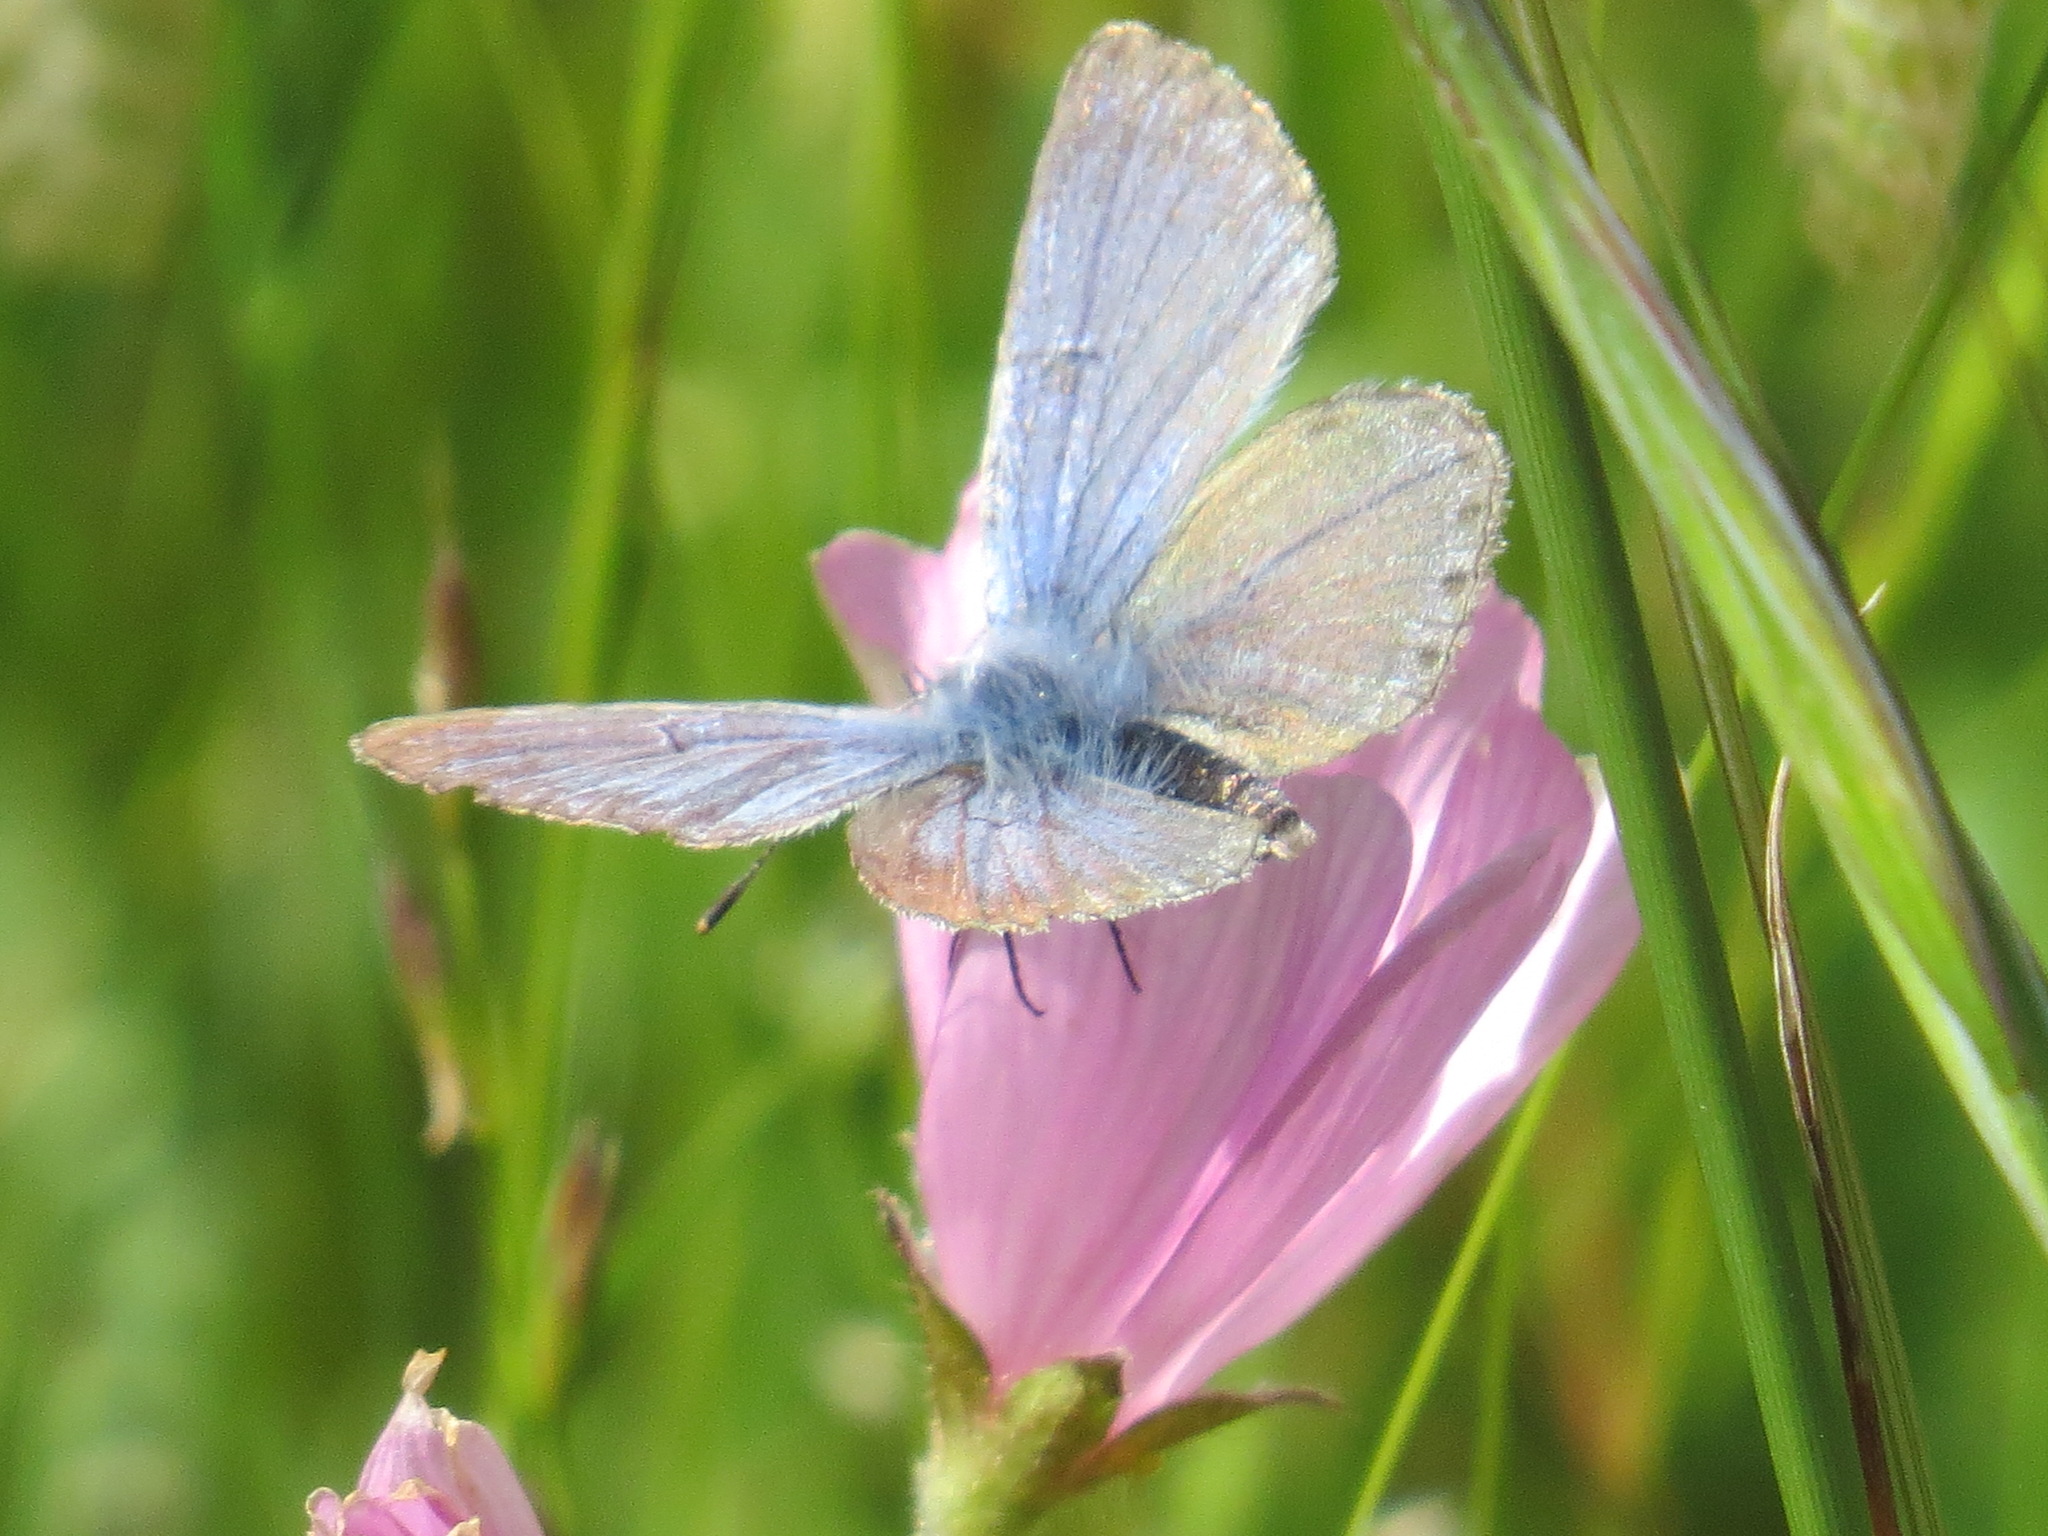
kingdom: Animalia
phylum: Arthropoda
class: Insecta
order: Lepidoptera
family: Lycaenidae
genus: Icaricia
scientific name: Icaricia icarioides
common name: Boisduval's blue
